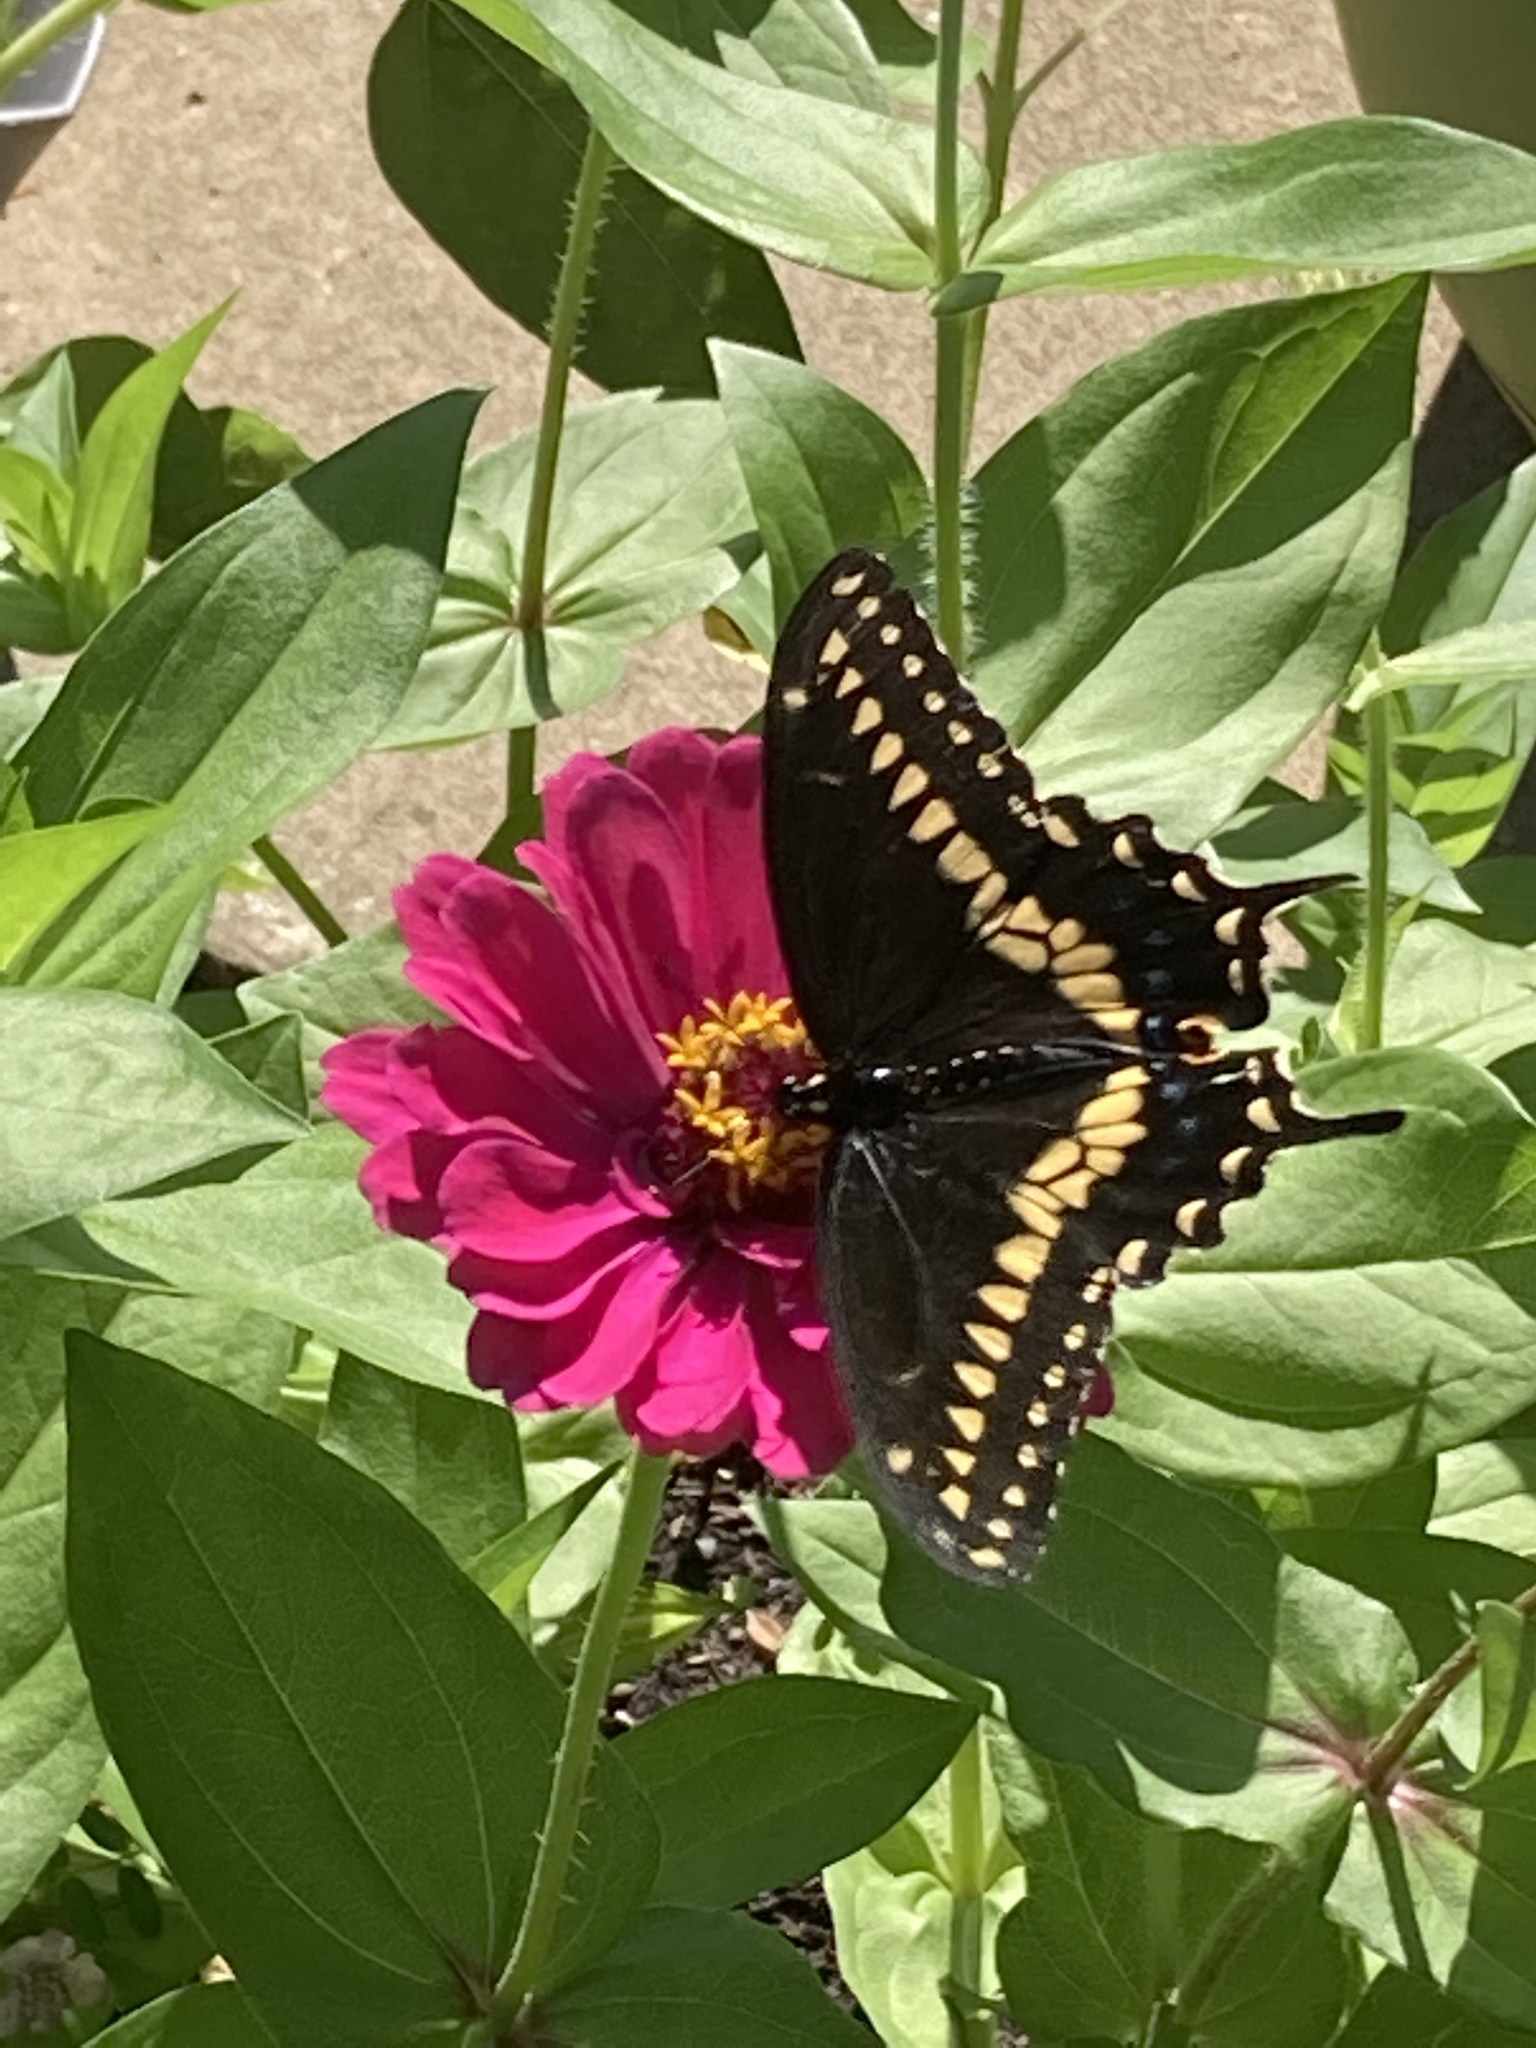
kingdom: Animalia
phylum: Arthropoda
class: Insecta
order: Lepidoptera
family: Papilionidae
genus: Papilio
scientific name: Papilio polyxenes
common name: Black swallowtail
